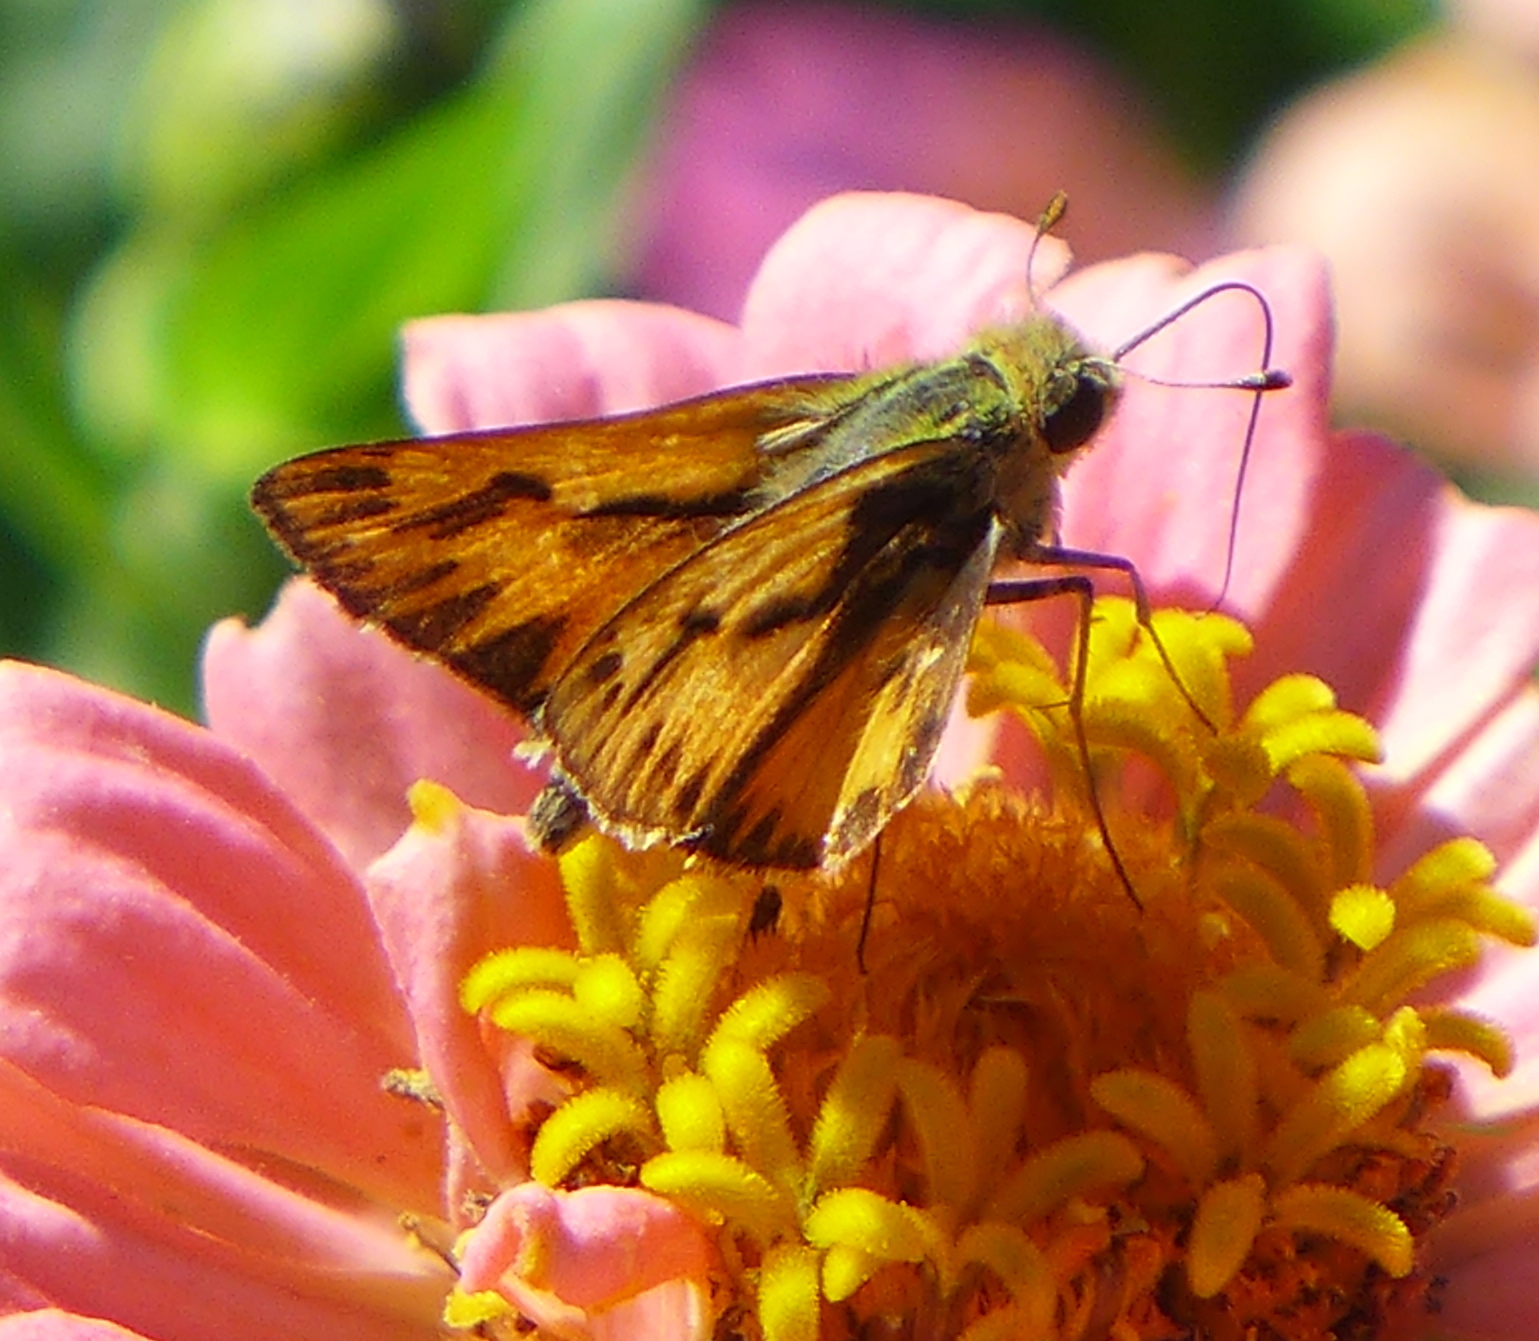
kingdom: Animalia
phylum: Arthropoda
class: Insecta
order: Lepidoptera
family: Hesperiidae
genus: Hylephila
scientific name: Hylephila phyleus
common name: Fiery skipper
